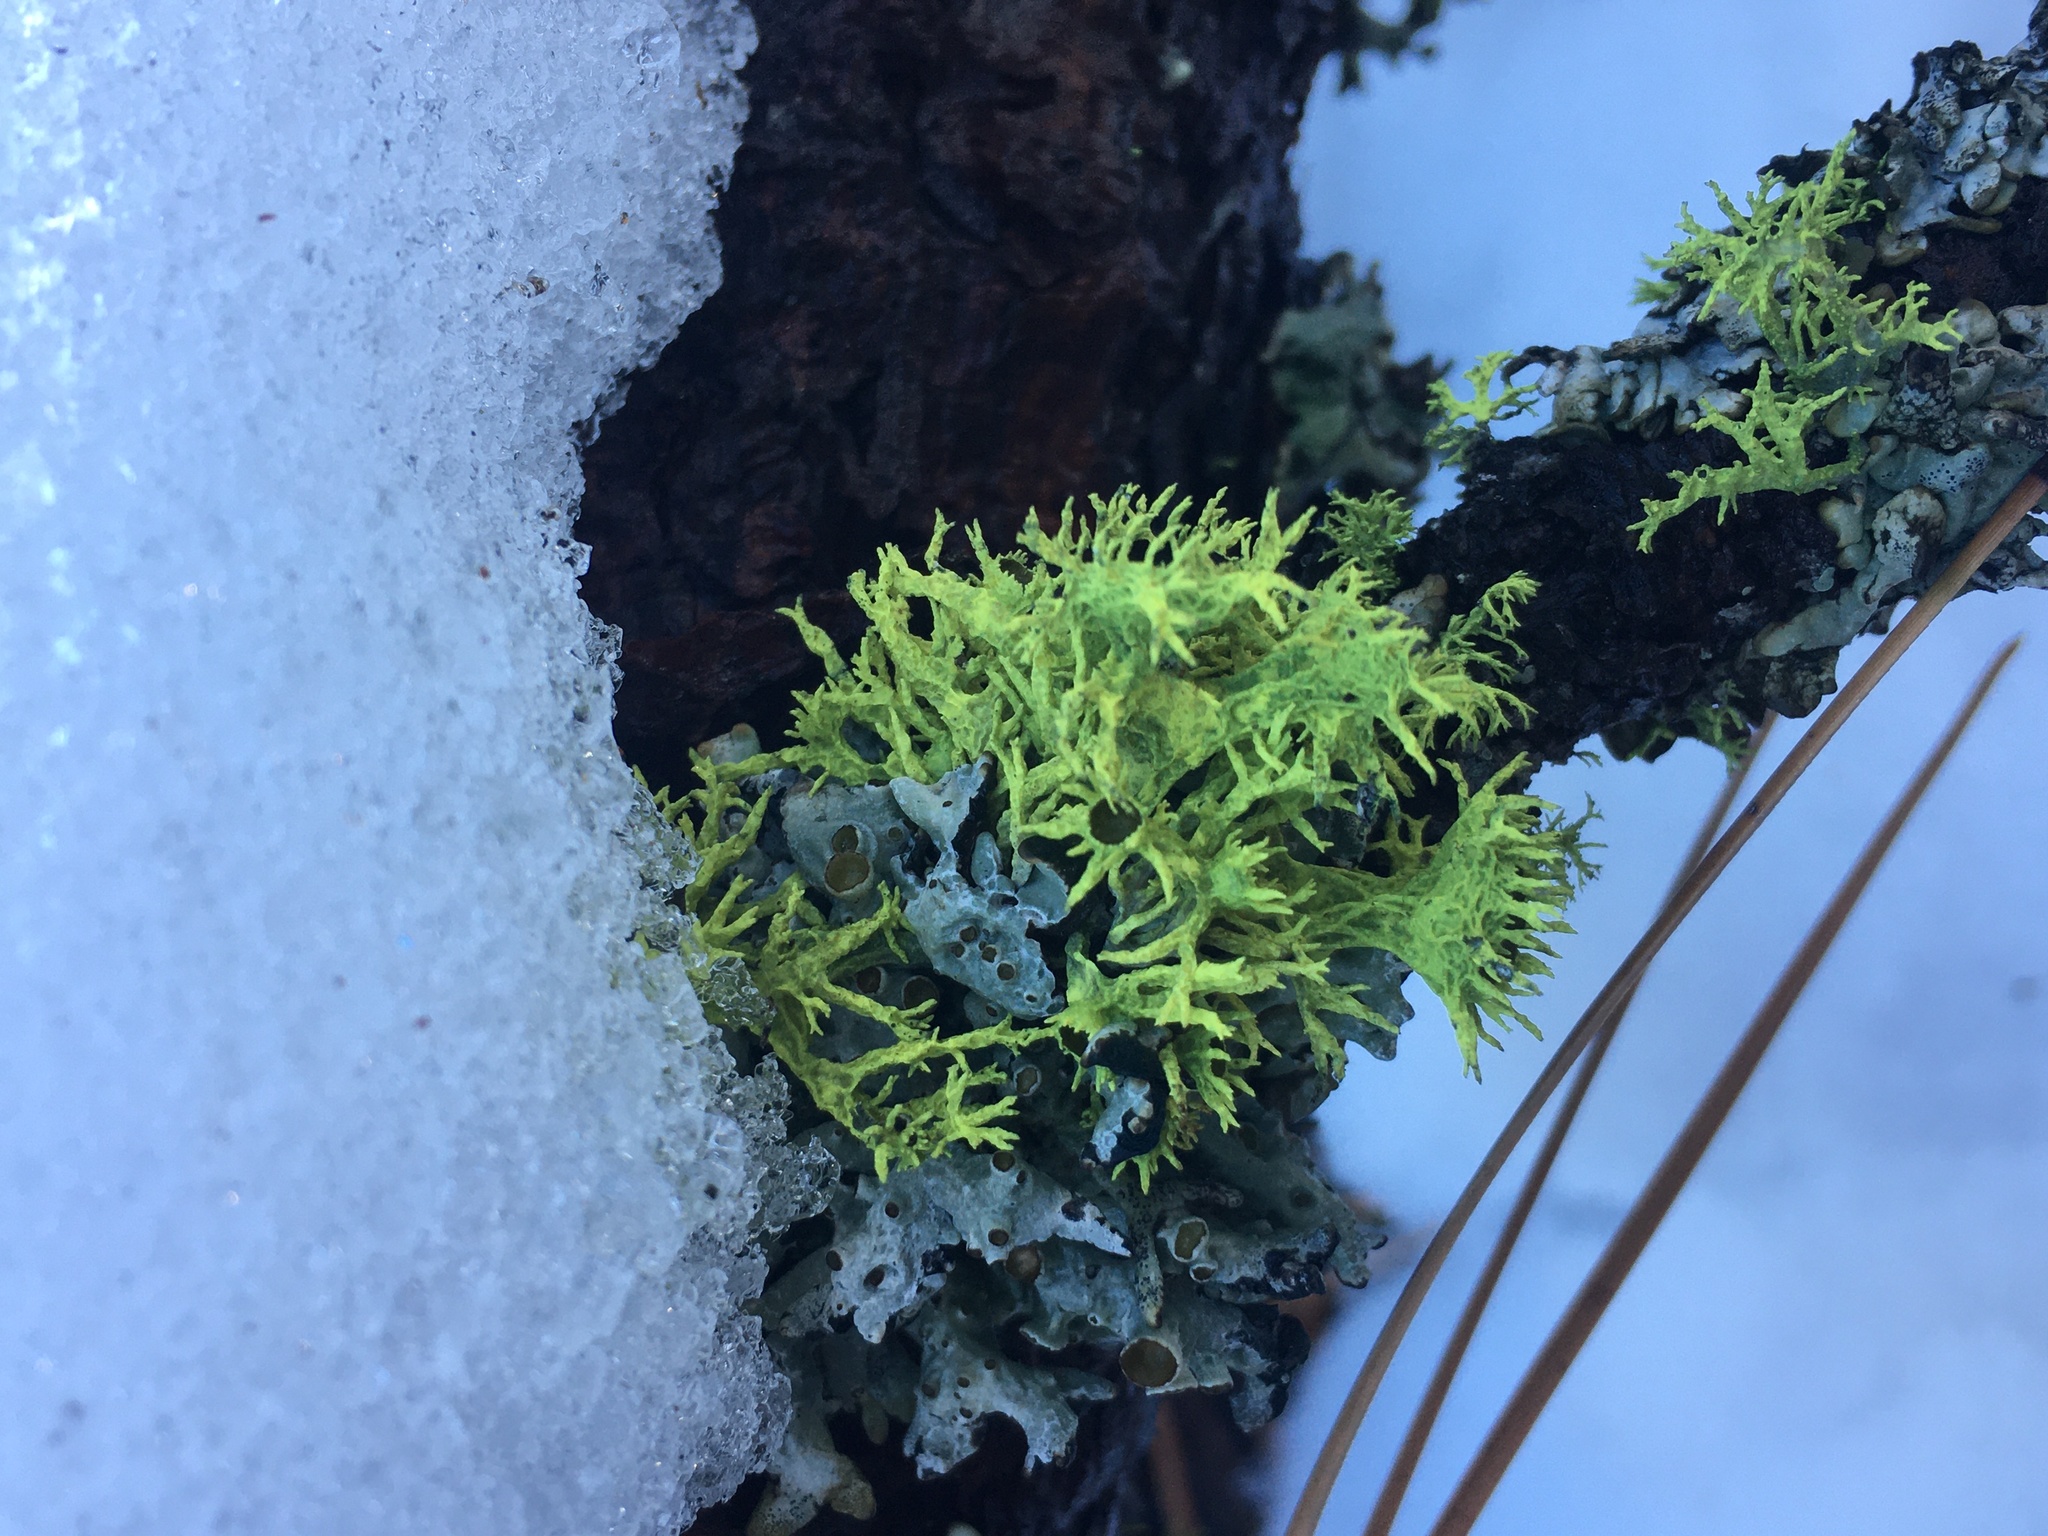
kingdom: Fungi
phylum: Ascomycota
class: Lecanoromycetes
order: Lecanorales
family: Parmeliaceae
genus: Letharia
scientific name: Letharia columbiana
